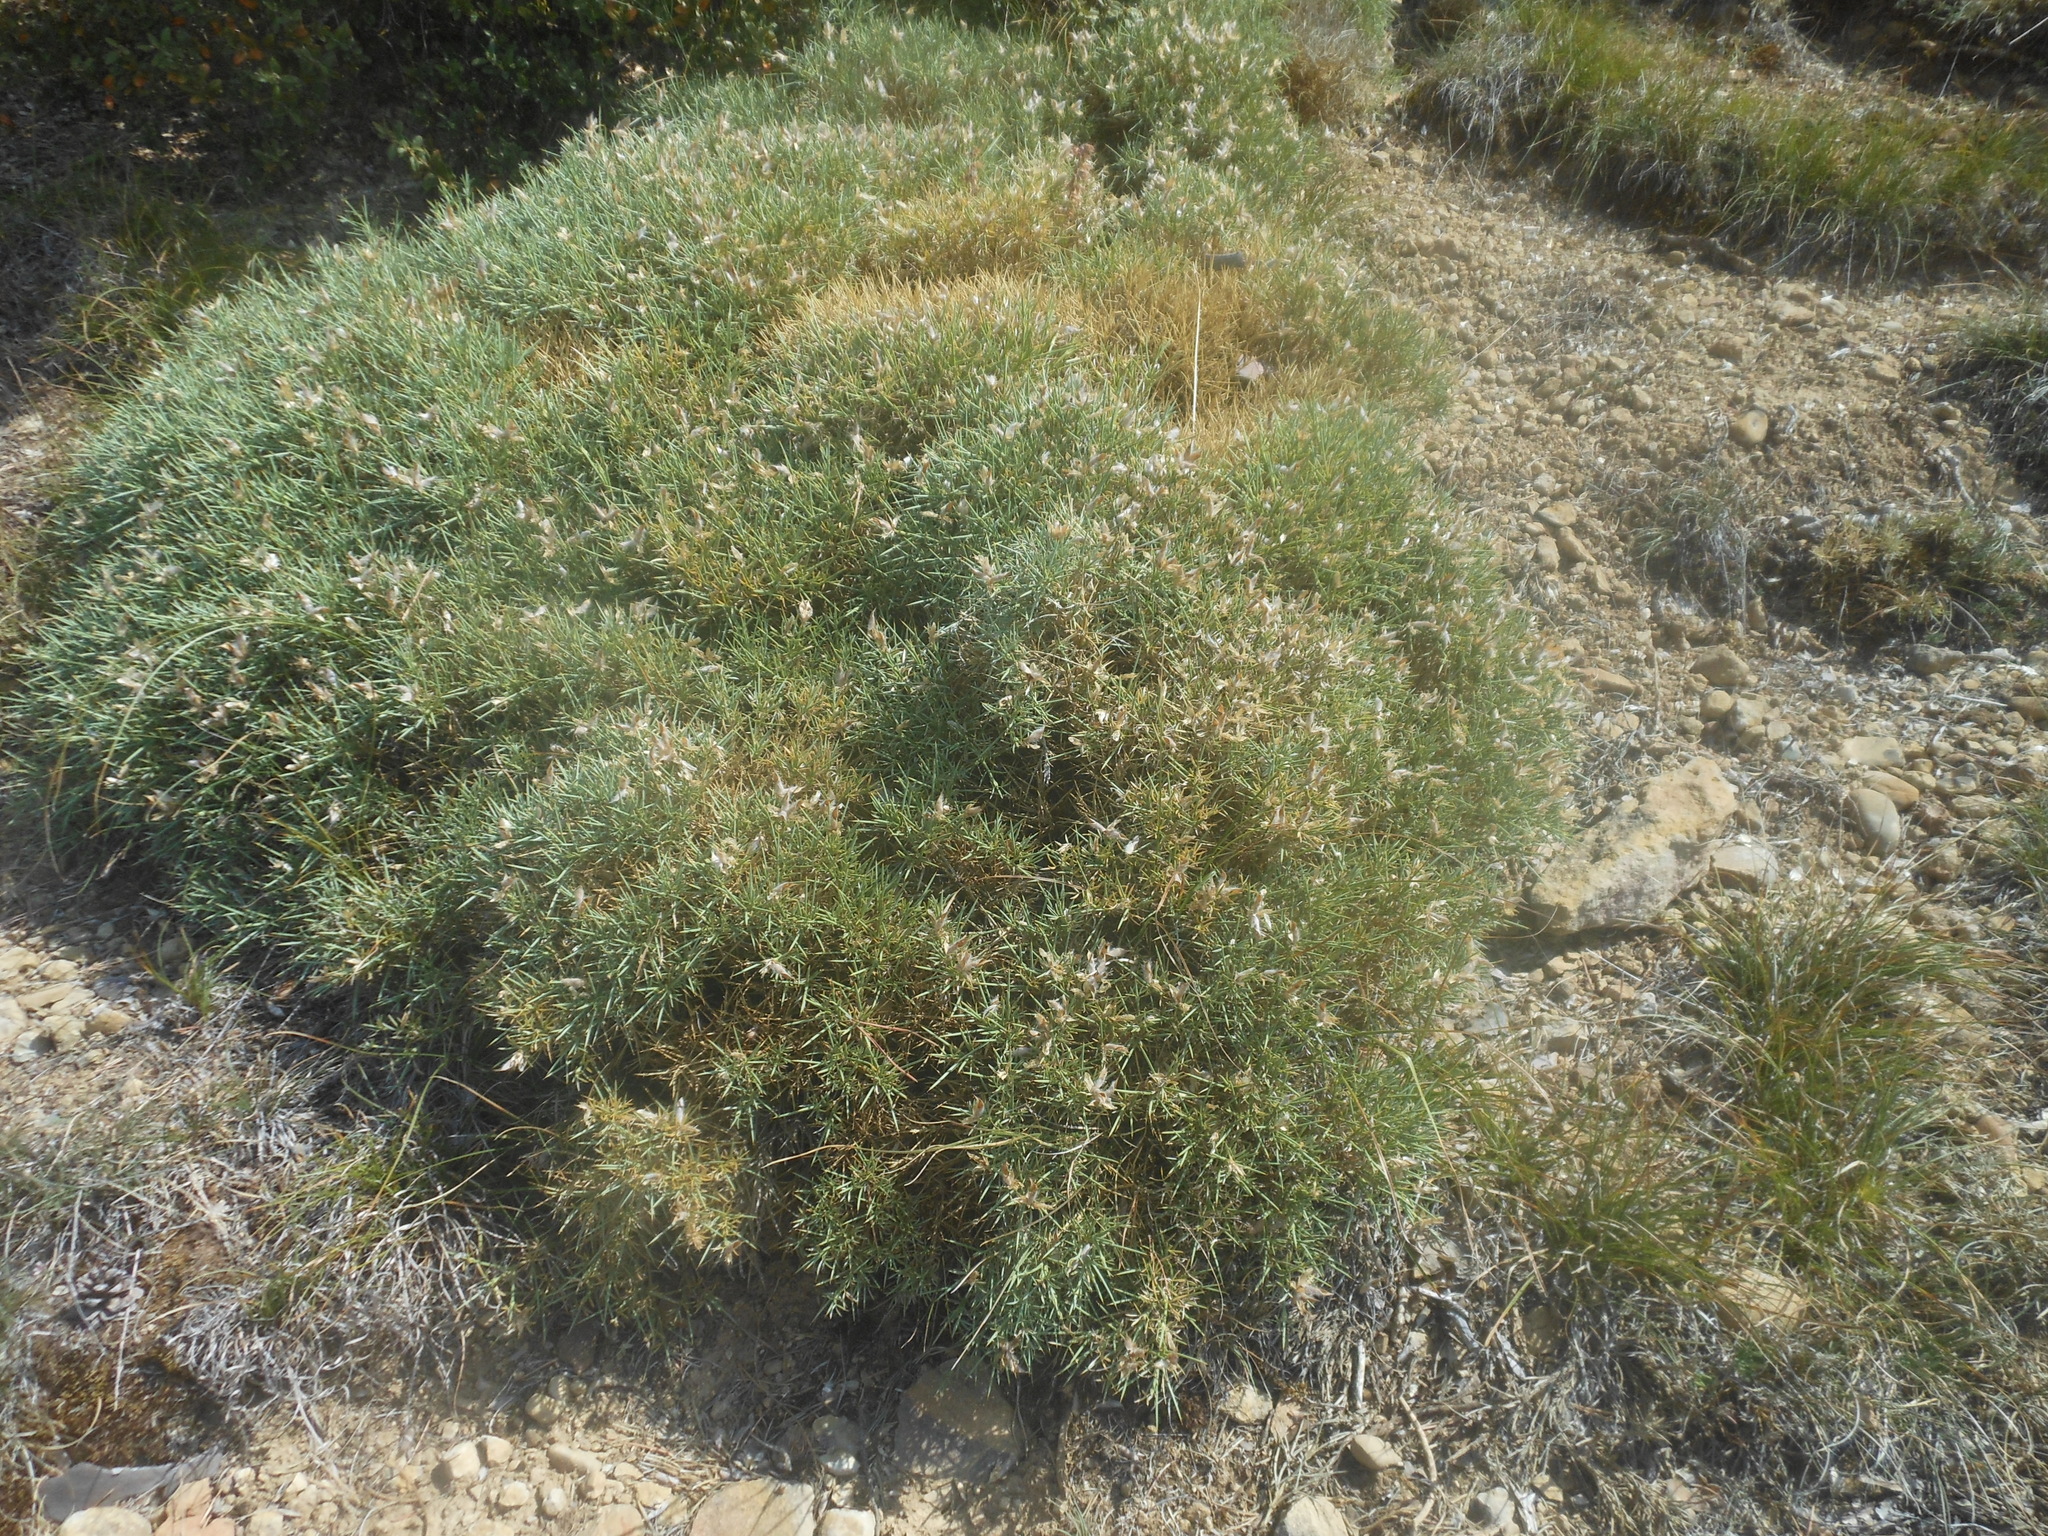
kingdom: Plantae
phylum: Tracheophyta
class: Magnoliopsida
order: Fabales
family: Fabaceae
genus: Echinospartum
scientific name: Echinospartum horridum
